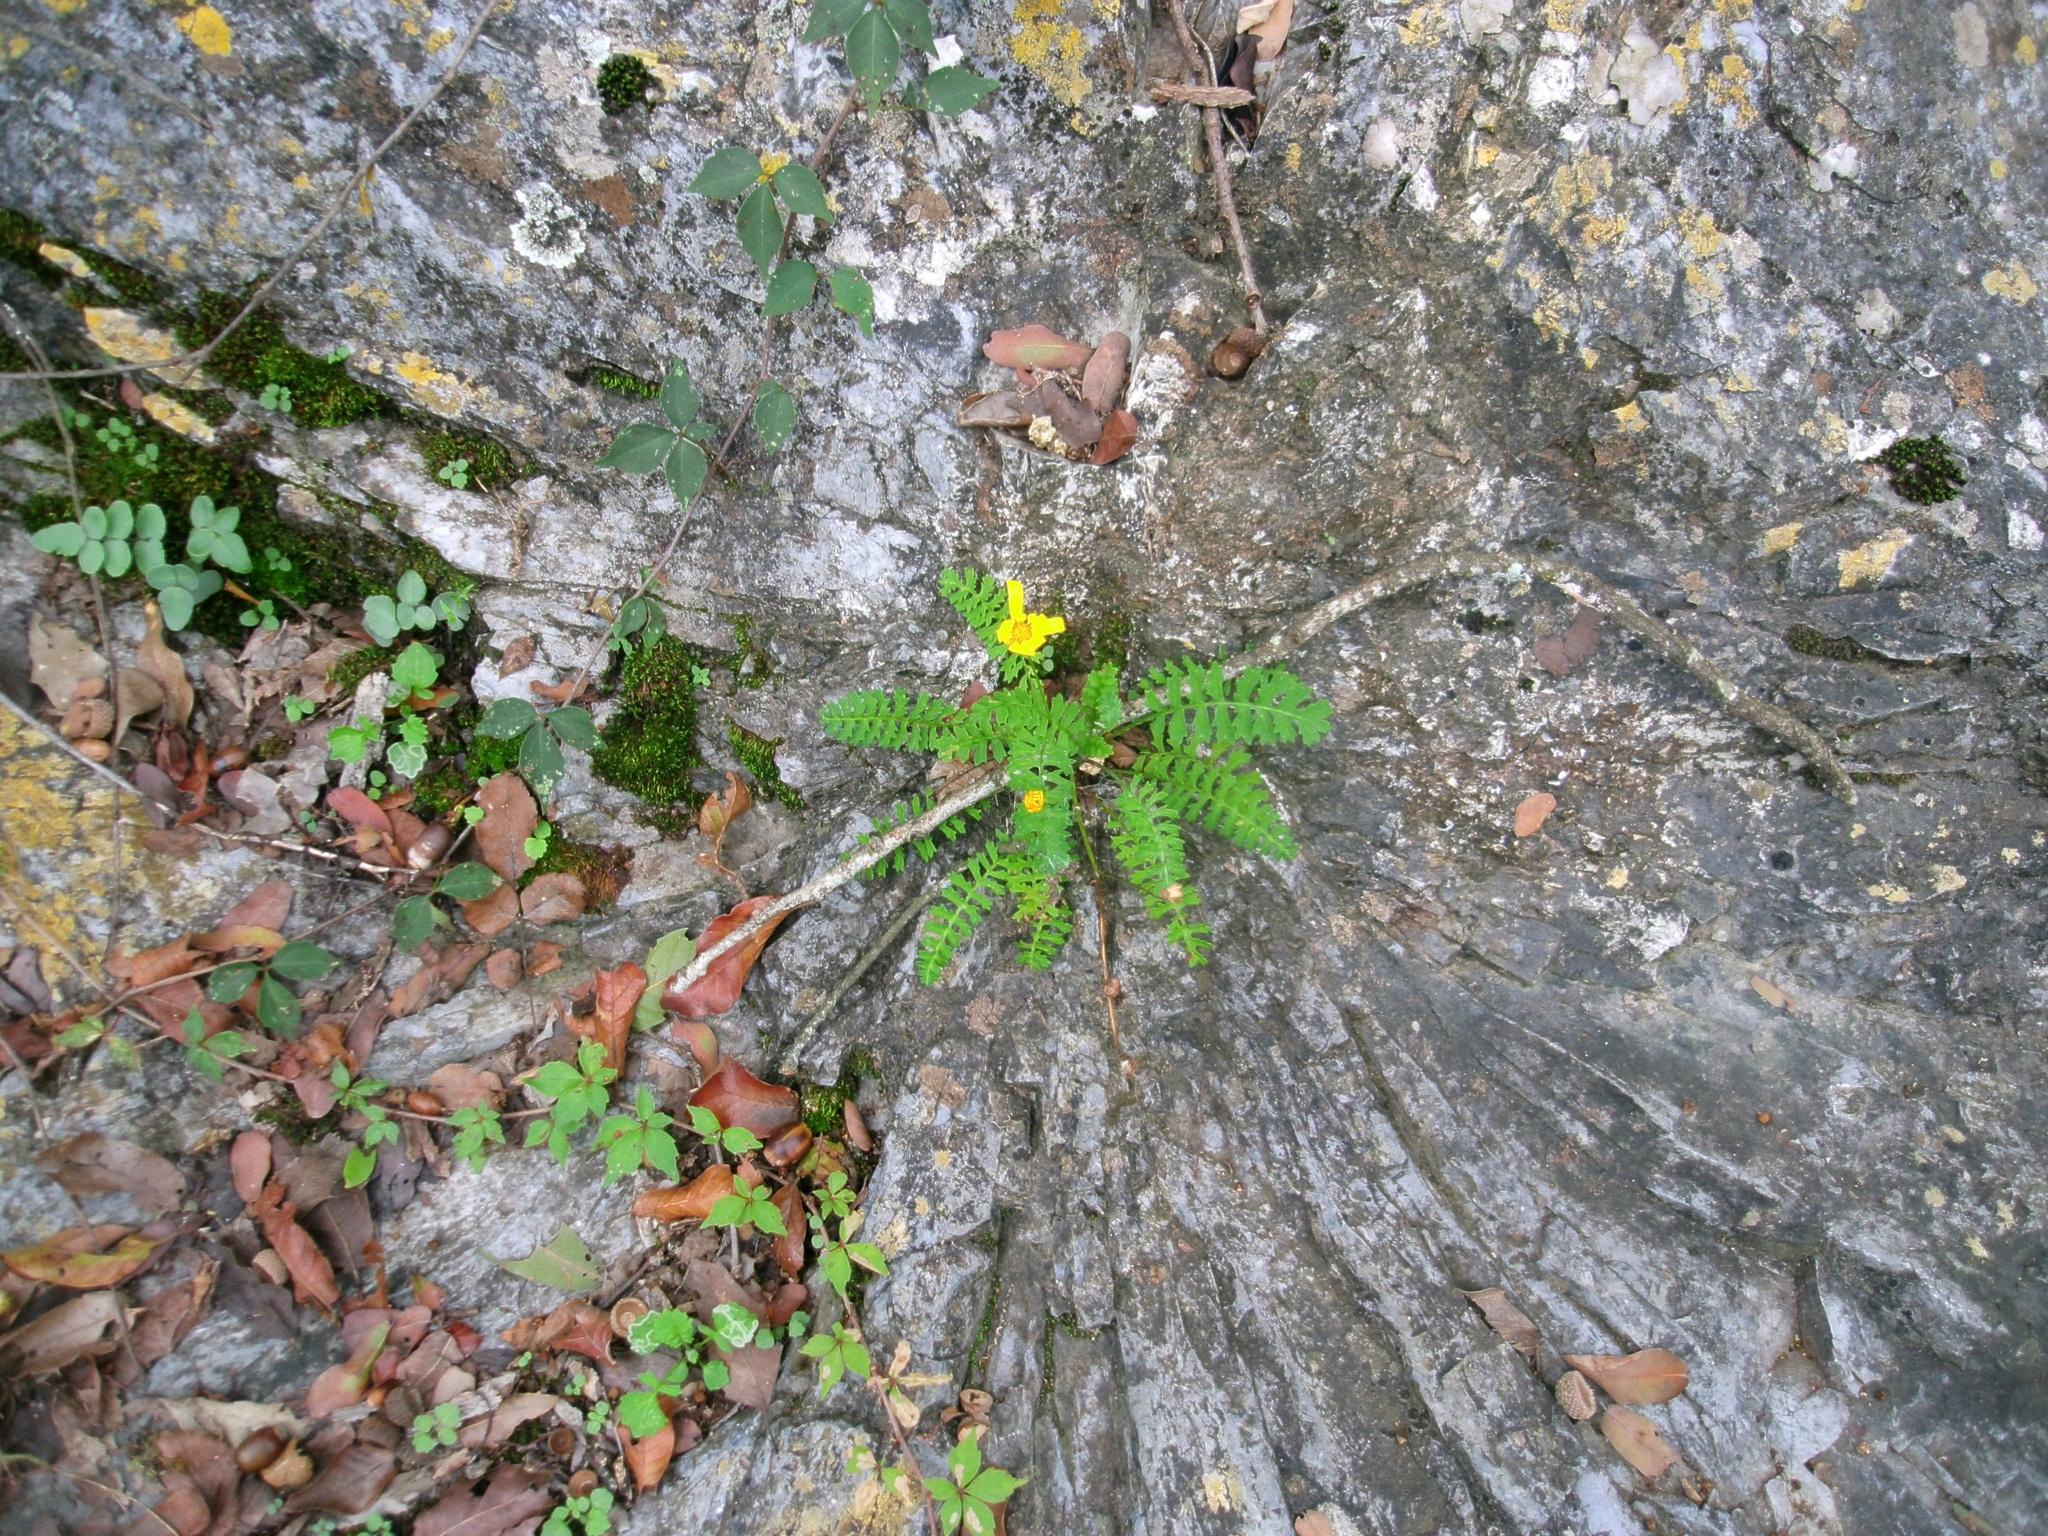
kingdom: Plantae
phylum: Tracheophyta
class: Magnoliopsida
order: Asterales
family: Asteraceae
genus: Packera
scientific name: Packera montereyana
